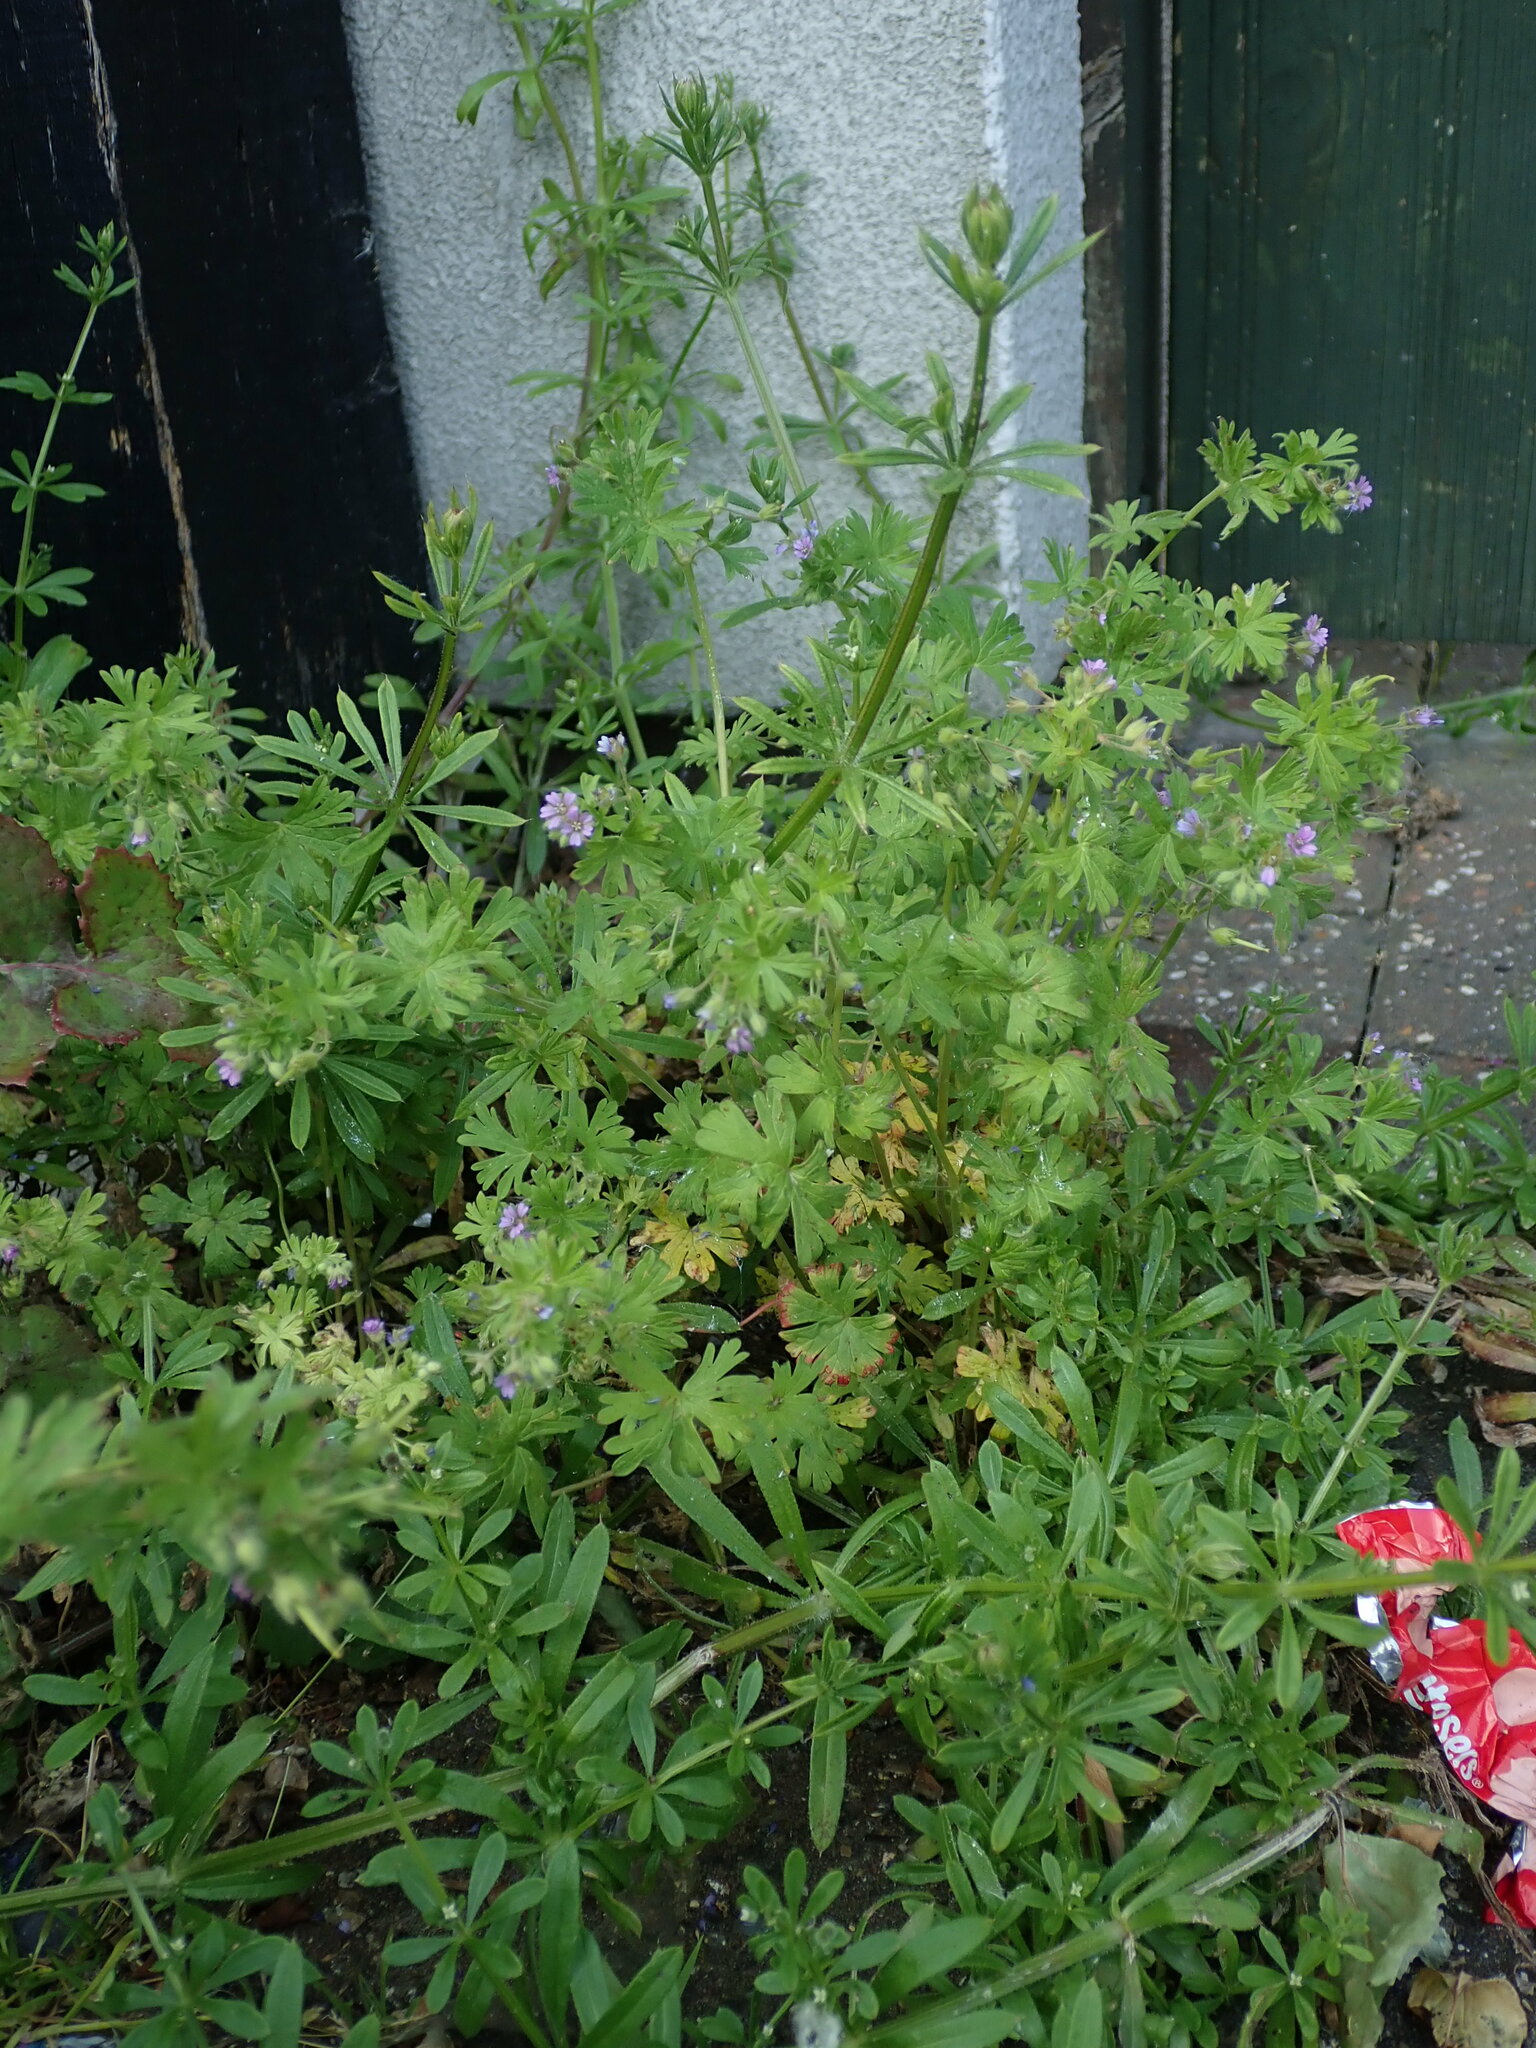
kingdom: Plantae
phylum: Tracheophyta
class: Magnoliopsida
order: Geraniales
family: Geraniaceae
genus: Geranium
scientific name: Geranium pusillum
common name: Small geranium
